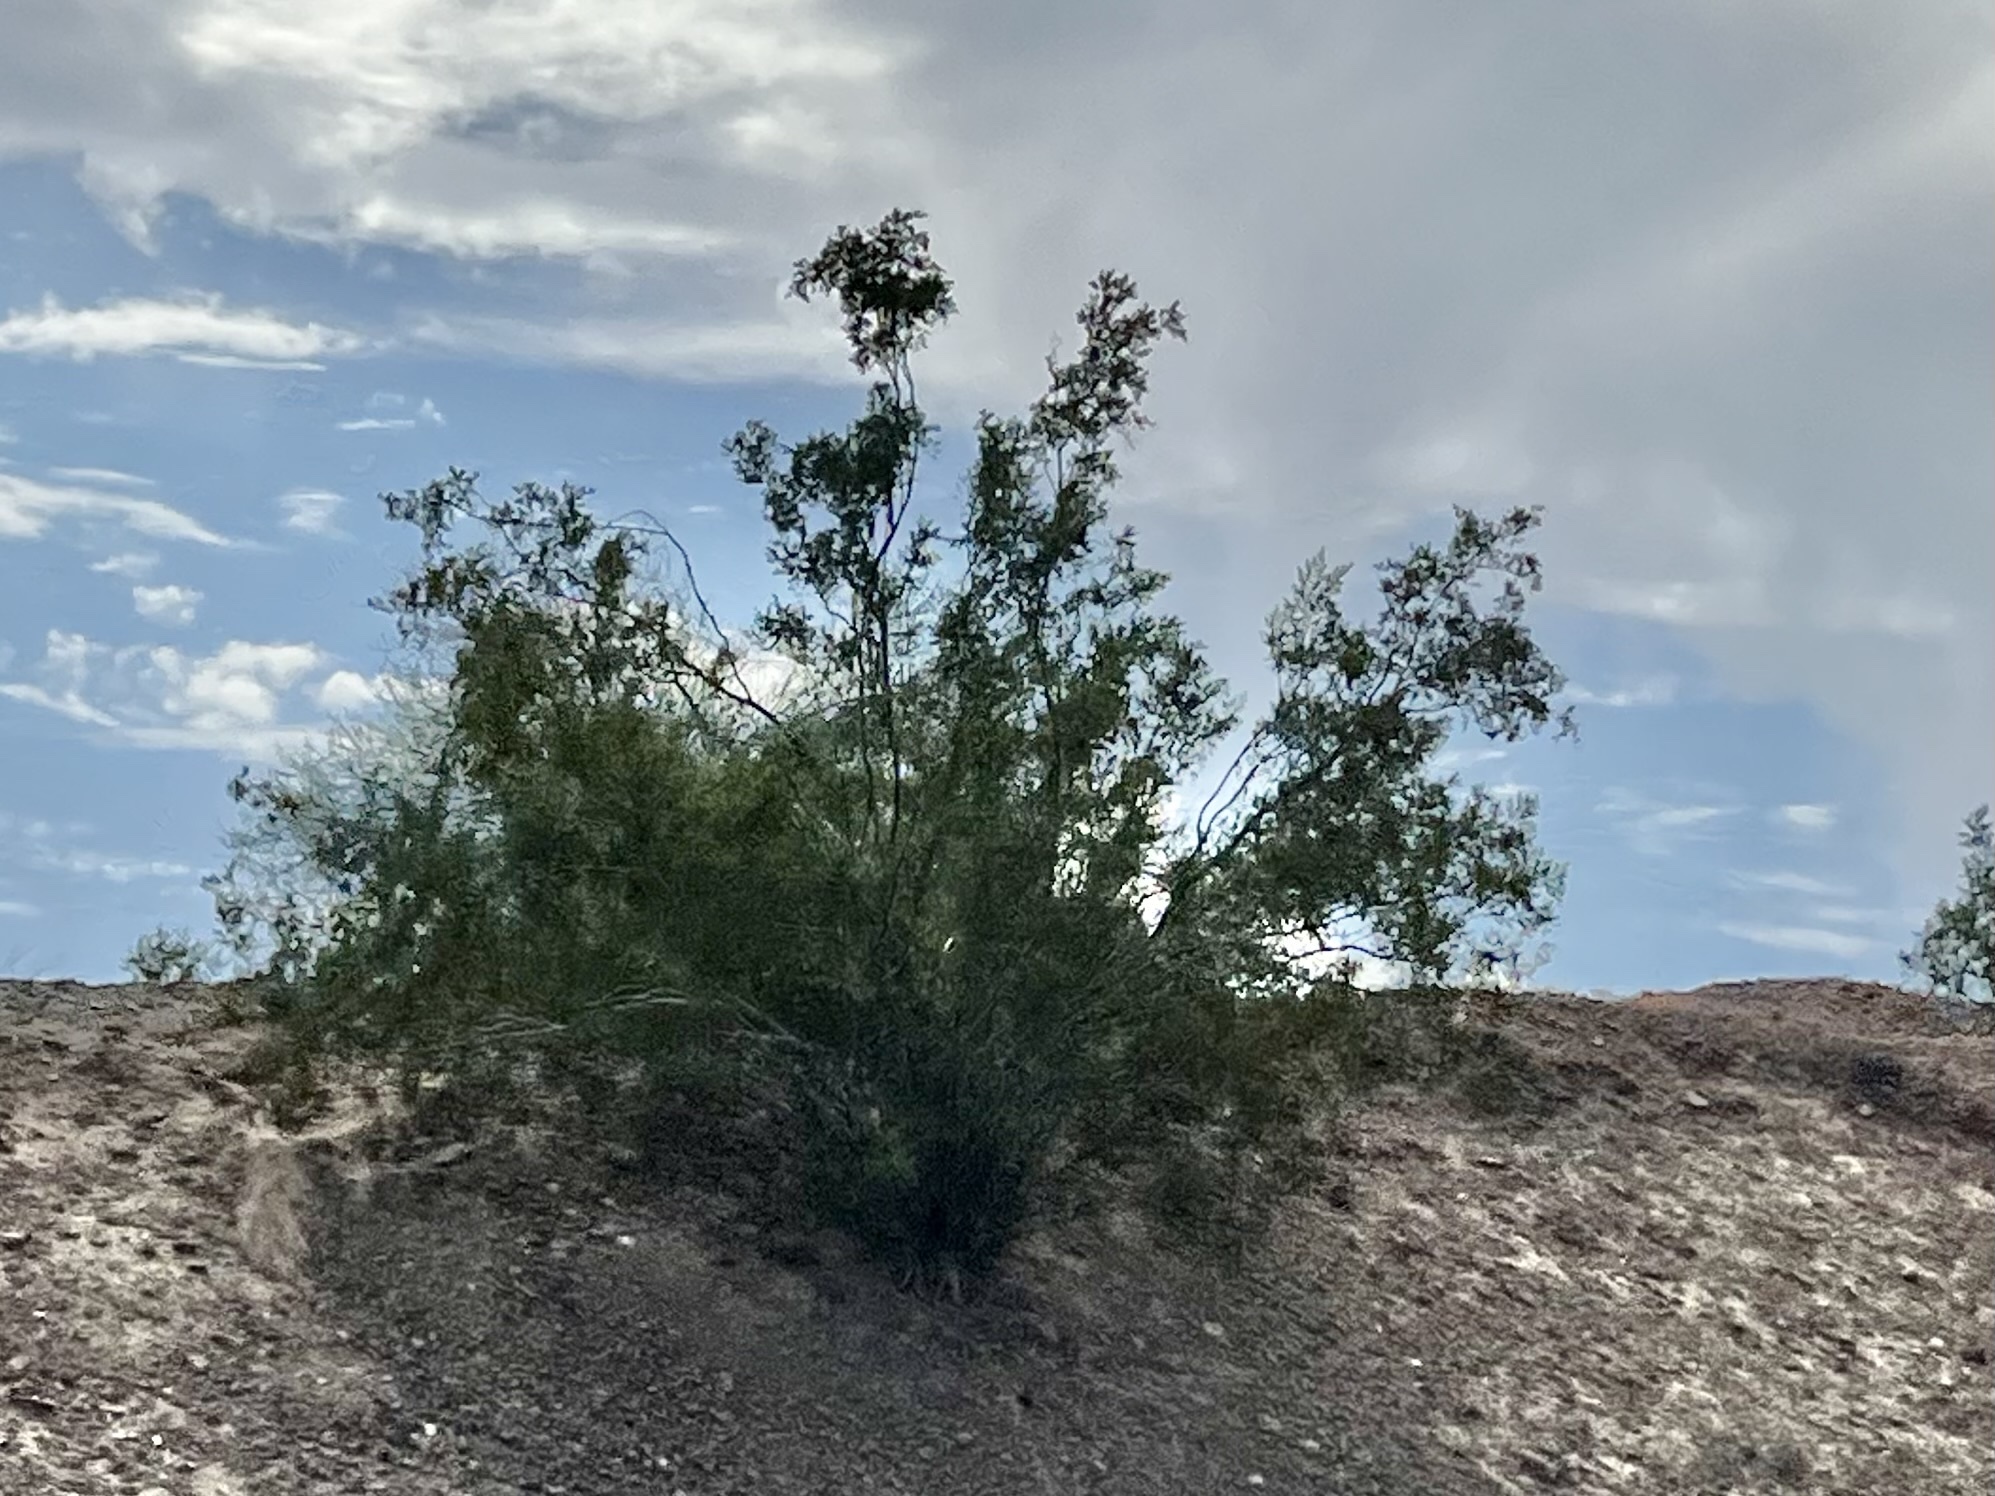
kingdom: Plantae
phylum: Tracheophyta
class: Magnoliopsida
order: Zygophyllales
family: Zygophyllaceae
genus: Larrea
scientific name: Larrea tridentata
